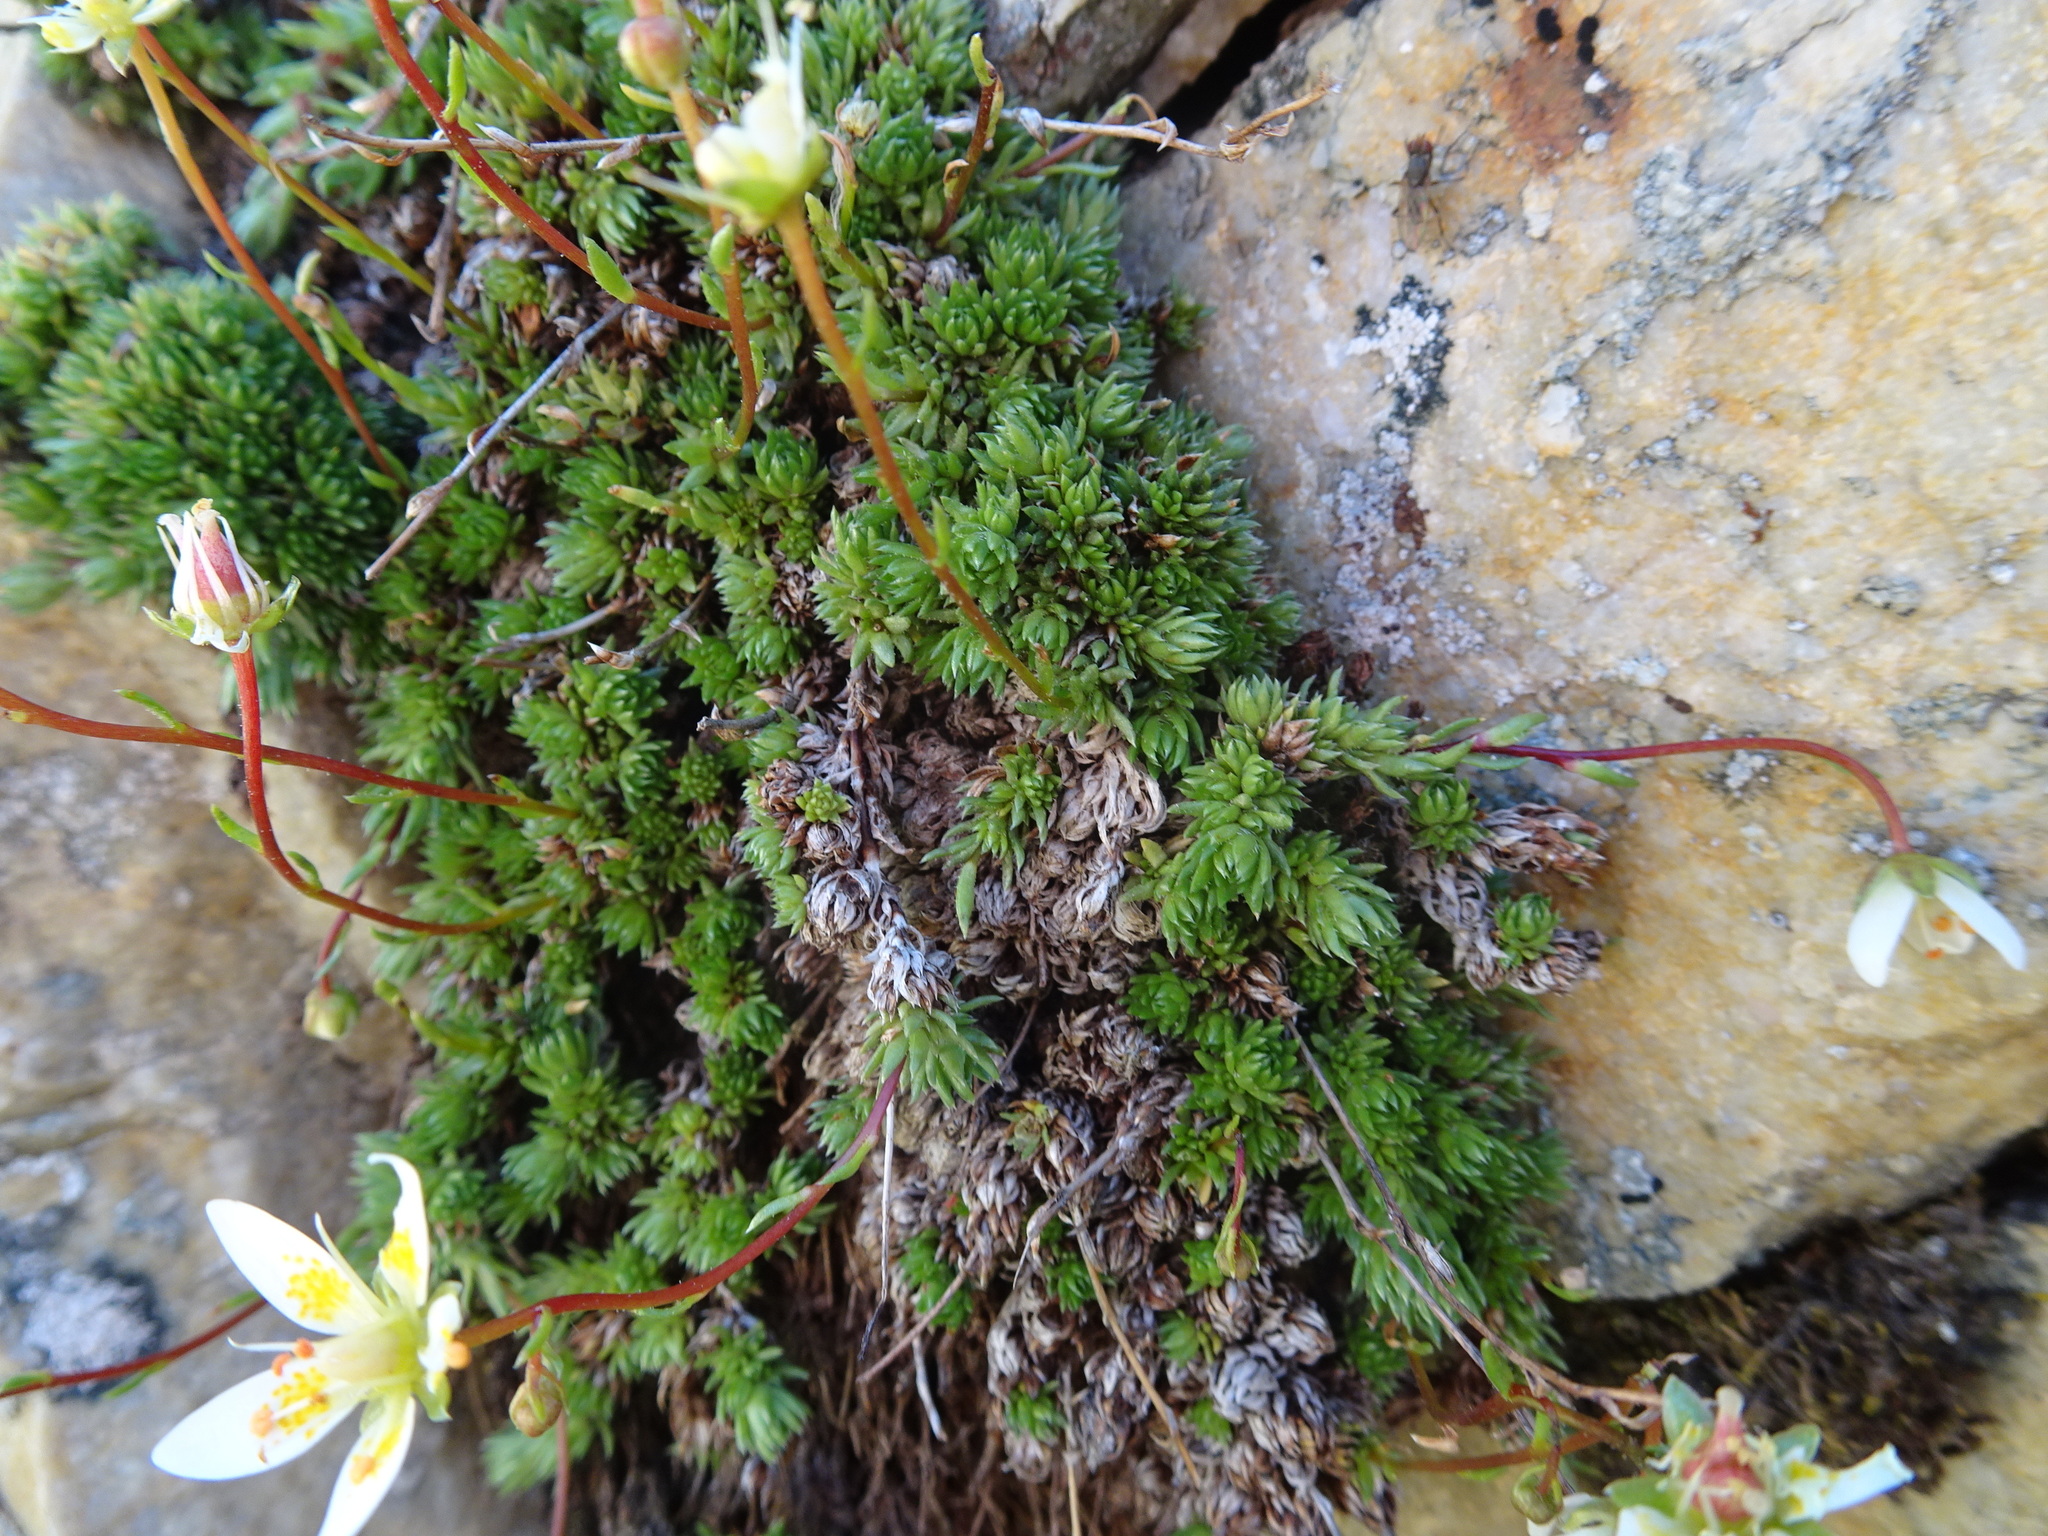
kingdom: Plantae
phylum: Tracheophyta
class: Magnoliopsida
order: Saxifragales
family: Saxifragaceae
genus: Saxifraga
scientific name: Saxifraga bryoides
